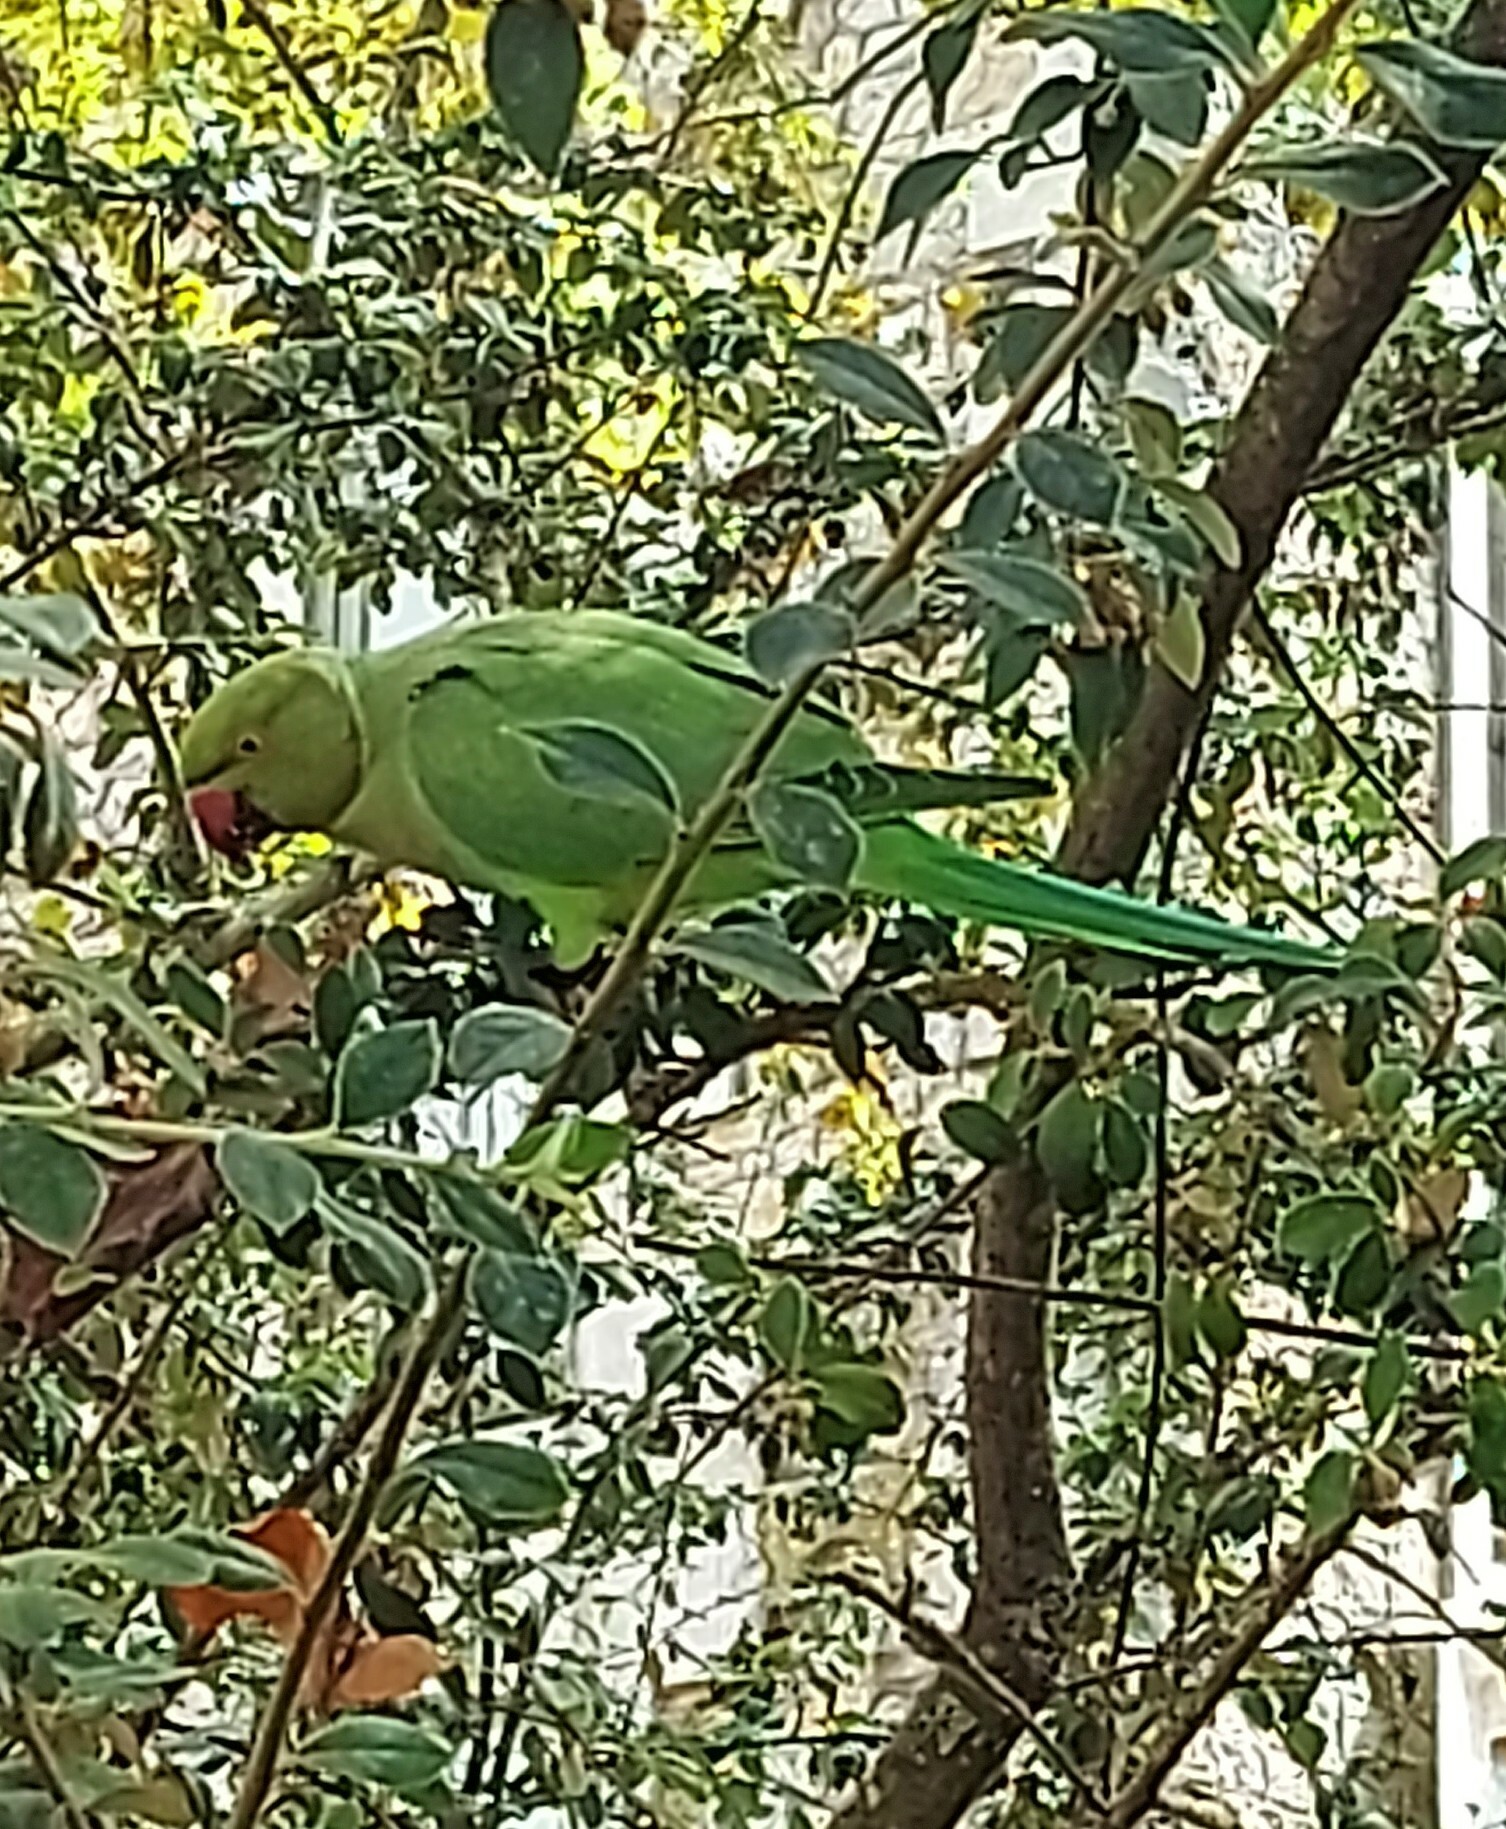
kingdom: Animalia
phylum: Chordata
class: Aves
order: Psittaciformes
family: Psittacidae
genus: Psittacula
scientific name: Psittacula krameri
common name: Rose-ringed parakeet
